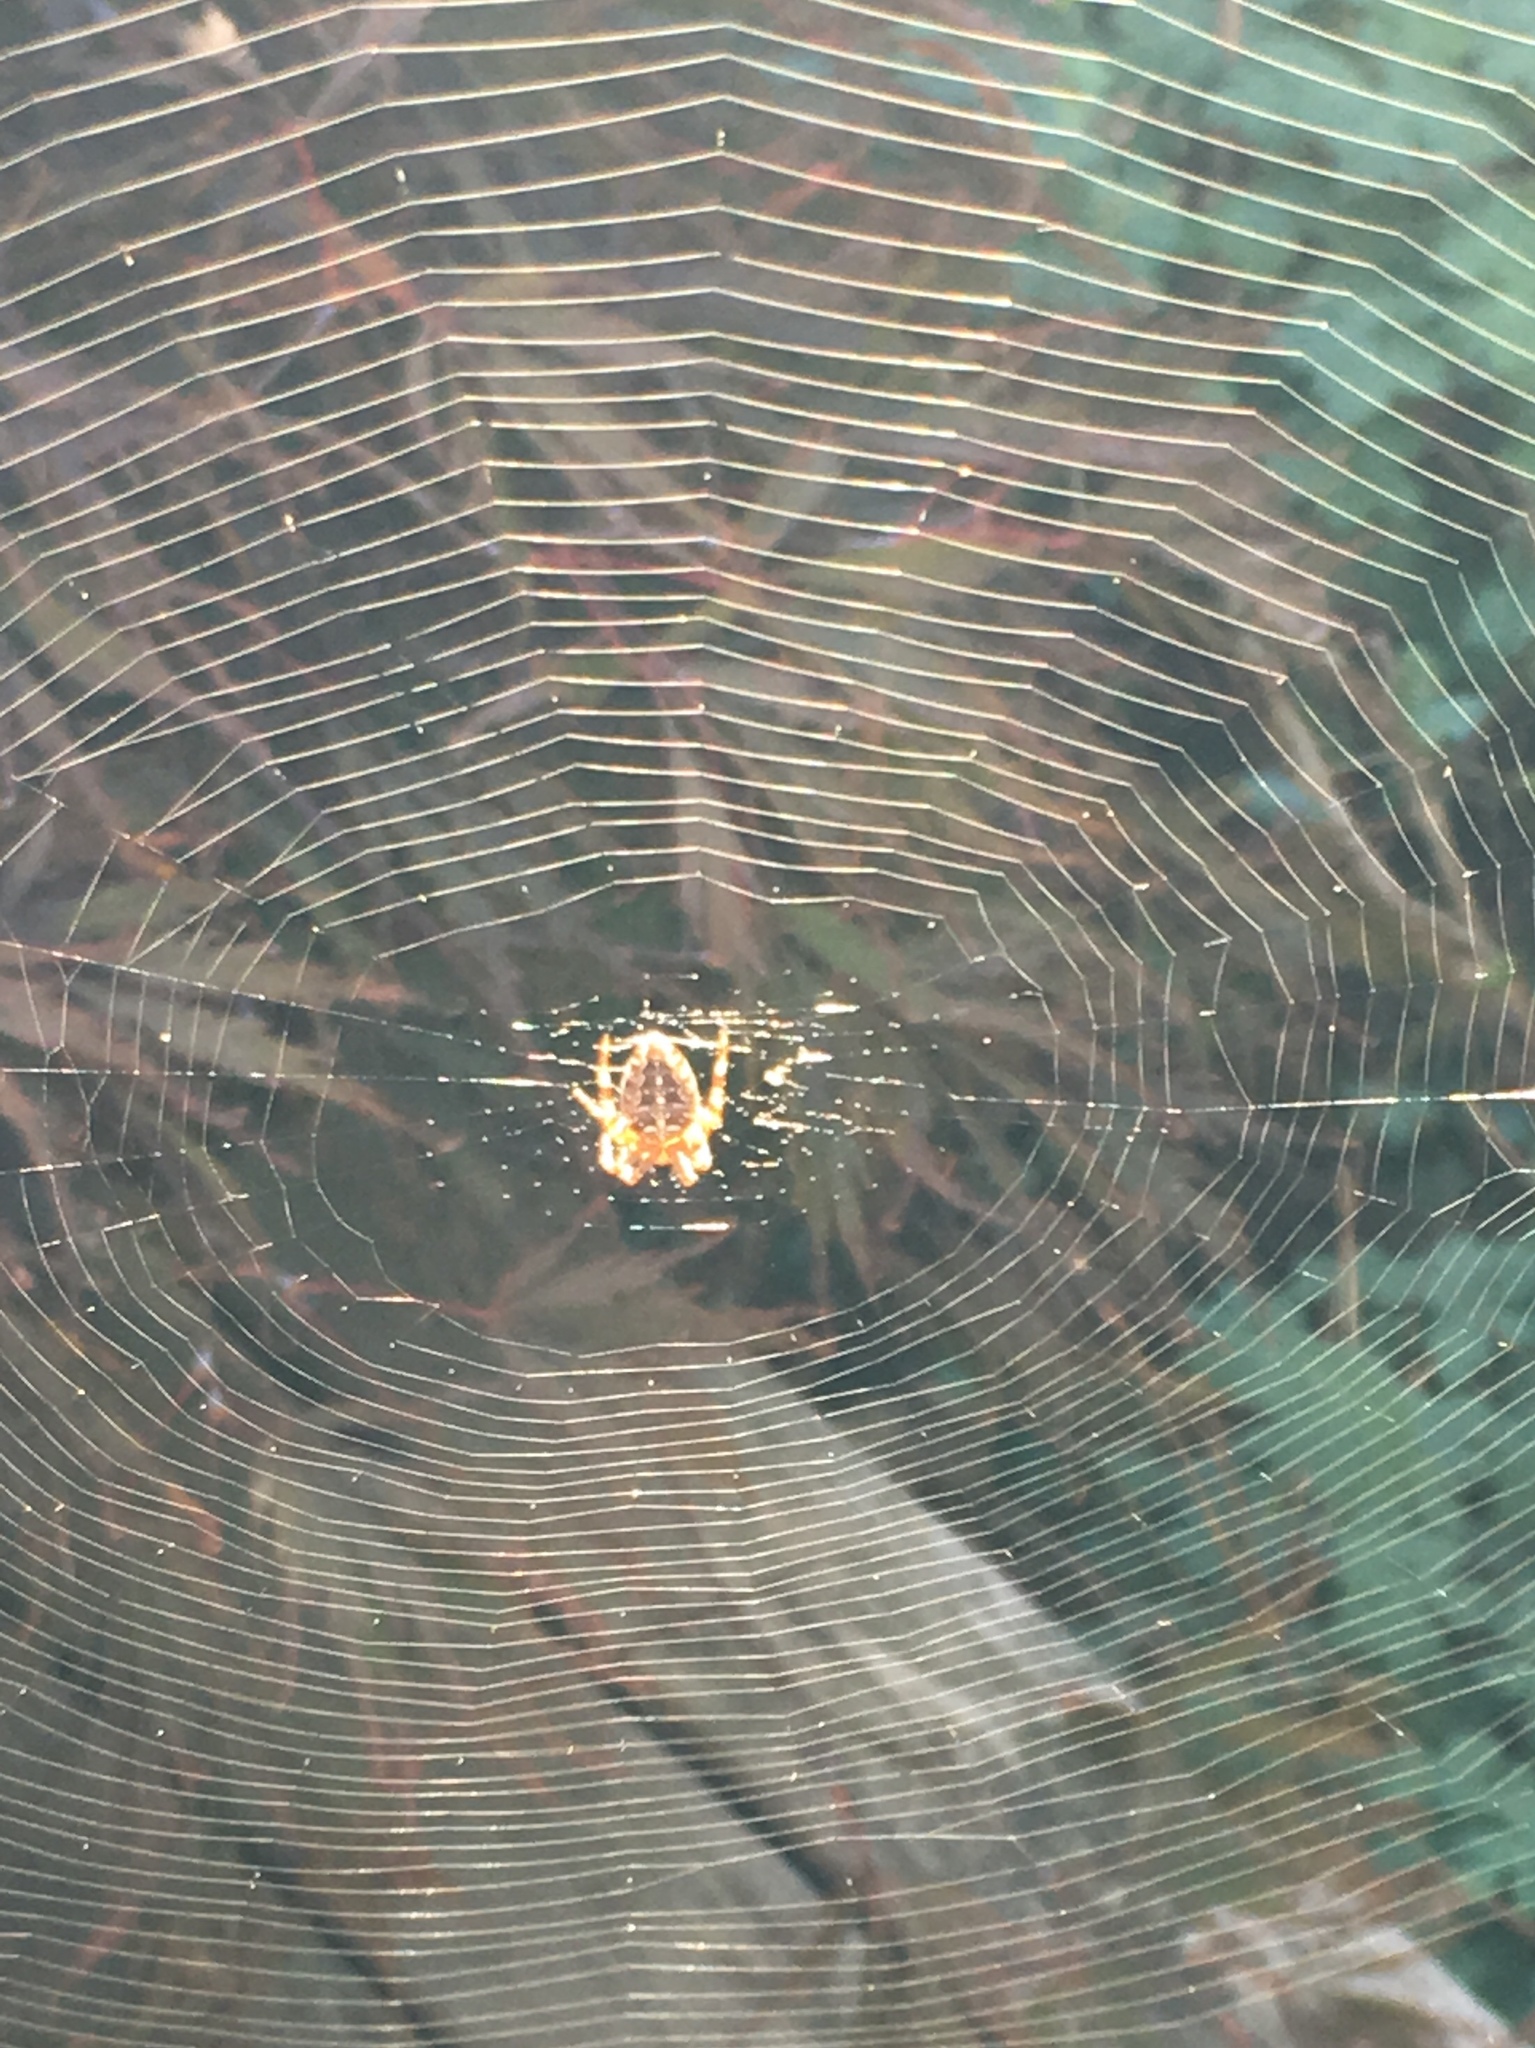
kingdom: Animalia
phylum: Arthropoda
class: Arachnida
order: Araneae
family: Araneidae
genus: Araneus
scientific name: Araneus diadematus
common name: Cross orbweaver
